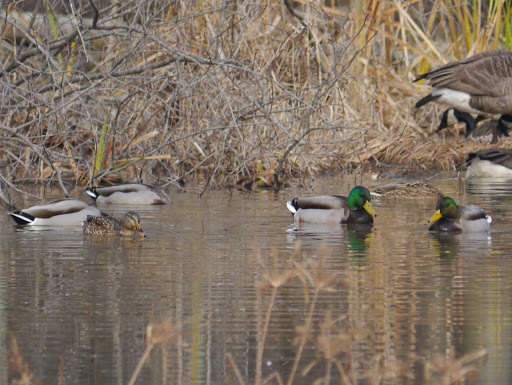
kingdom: Animalia
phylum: Chordata
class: Aves
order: Anseriformes
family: Anatidae
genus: Anas
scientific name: Anas platyrhynchos
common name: Mallard
